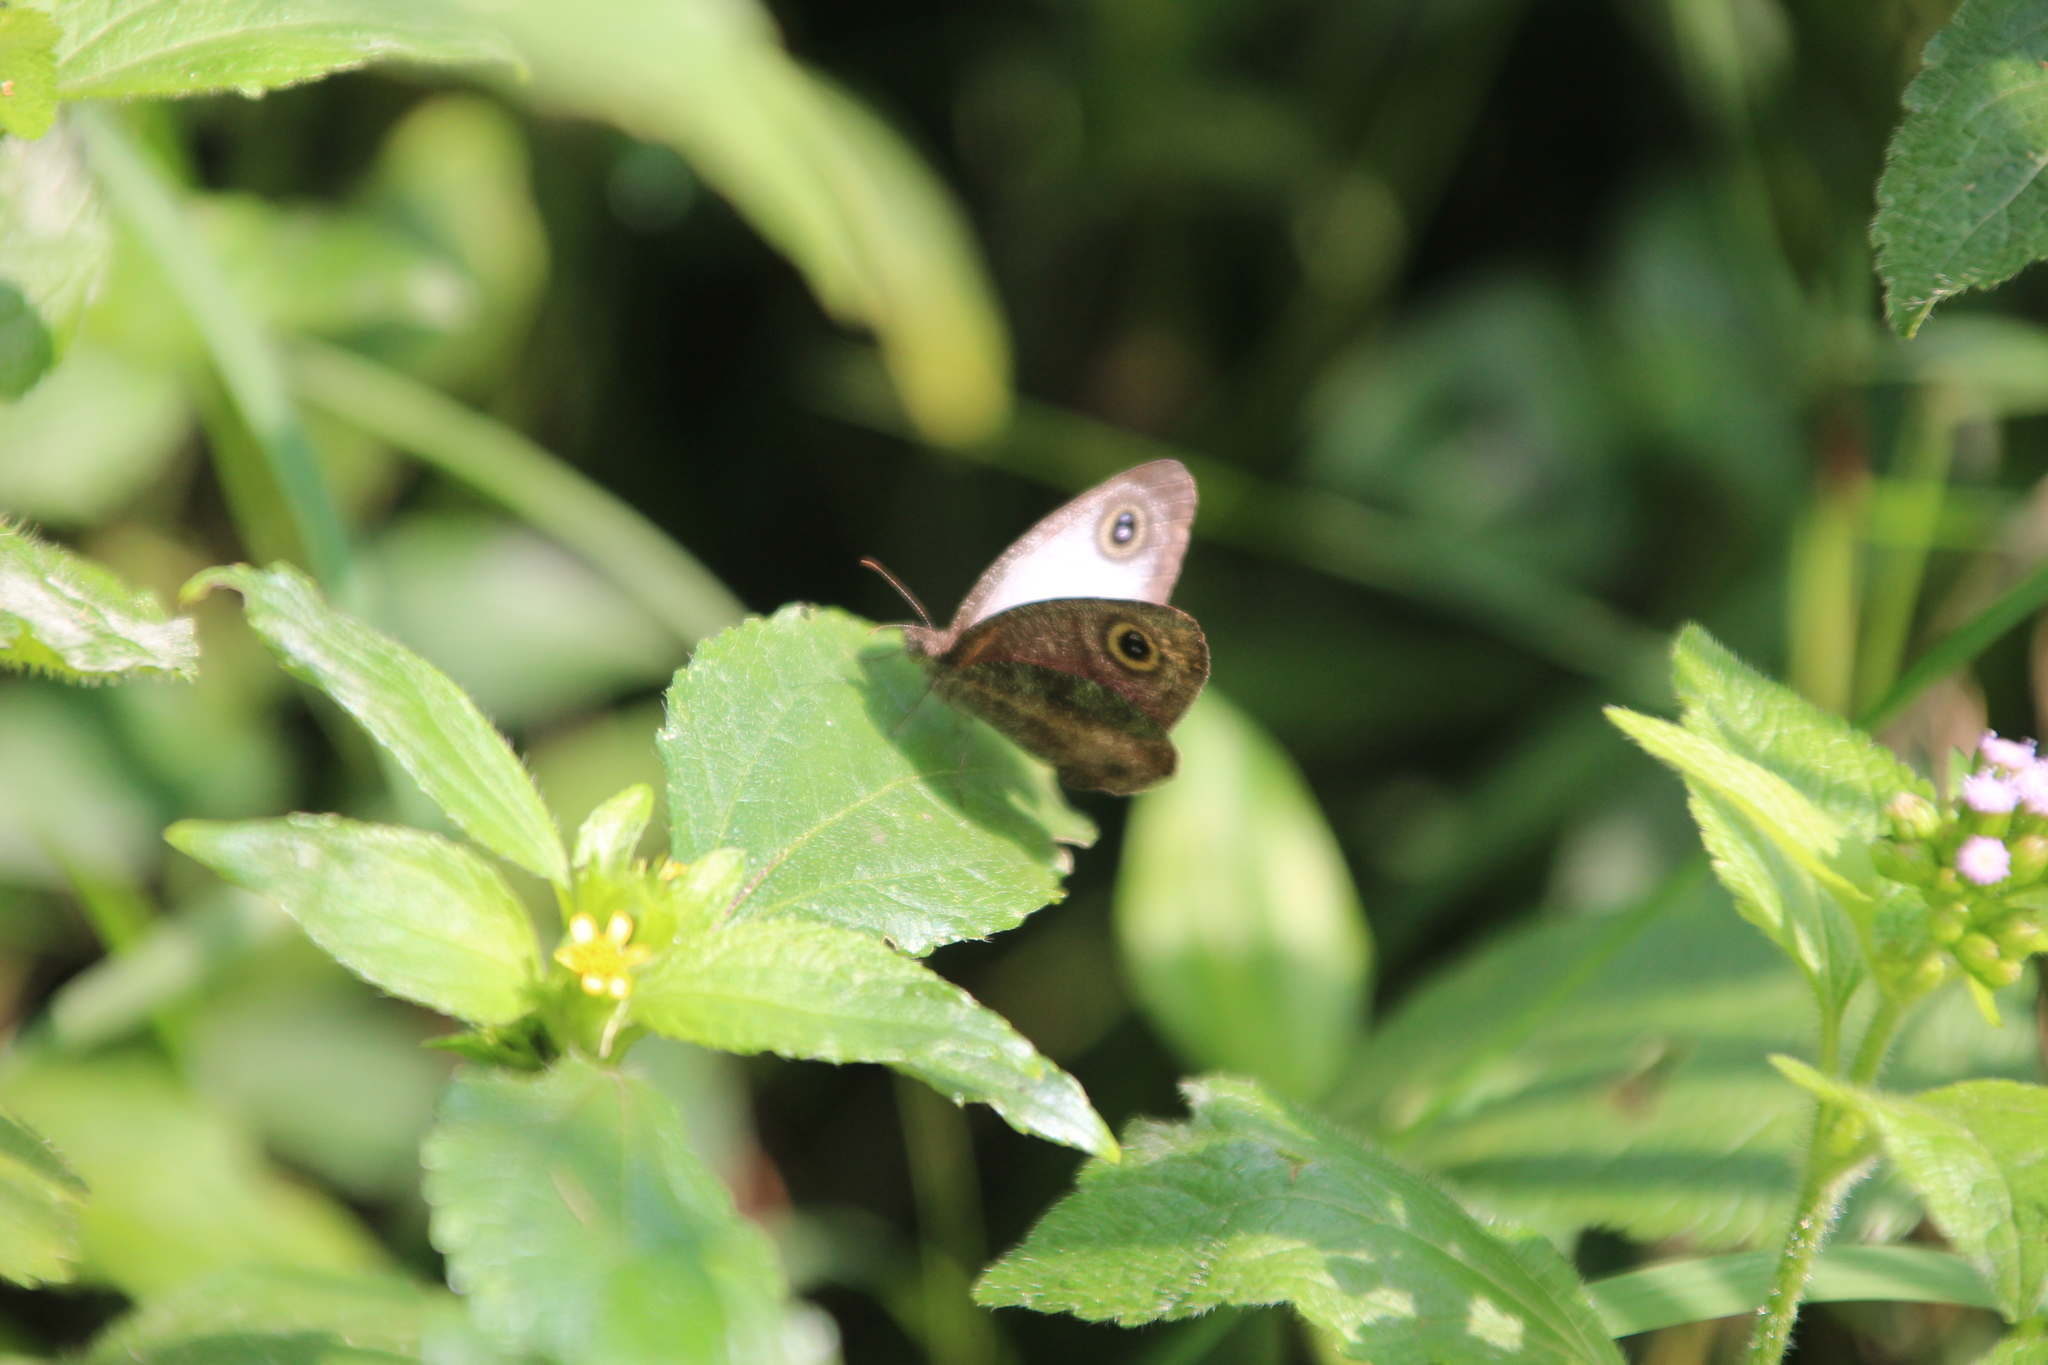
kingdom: Animalia
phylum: Arthropoda
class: Insecta
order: Lepidoptera
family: Nymphalidae
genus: Ypthima
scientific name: Ypthima albida
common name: Silver ringlet
